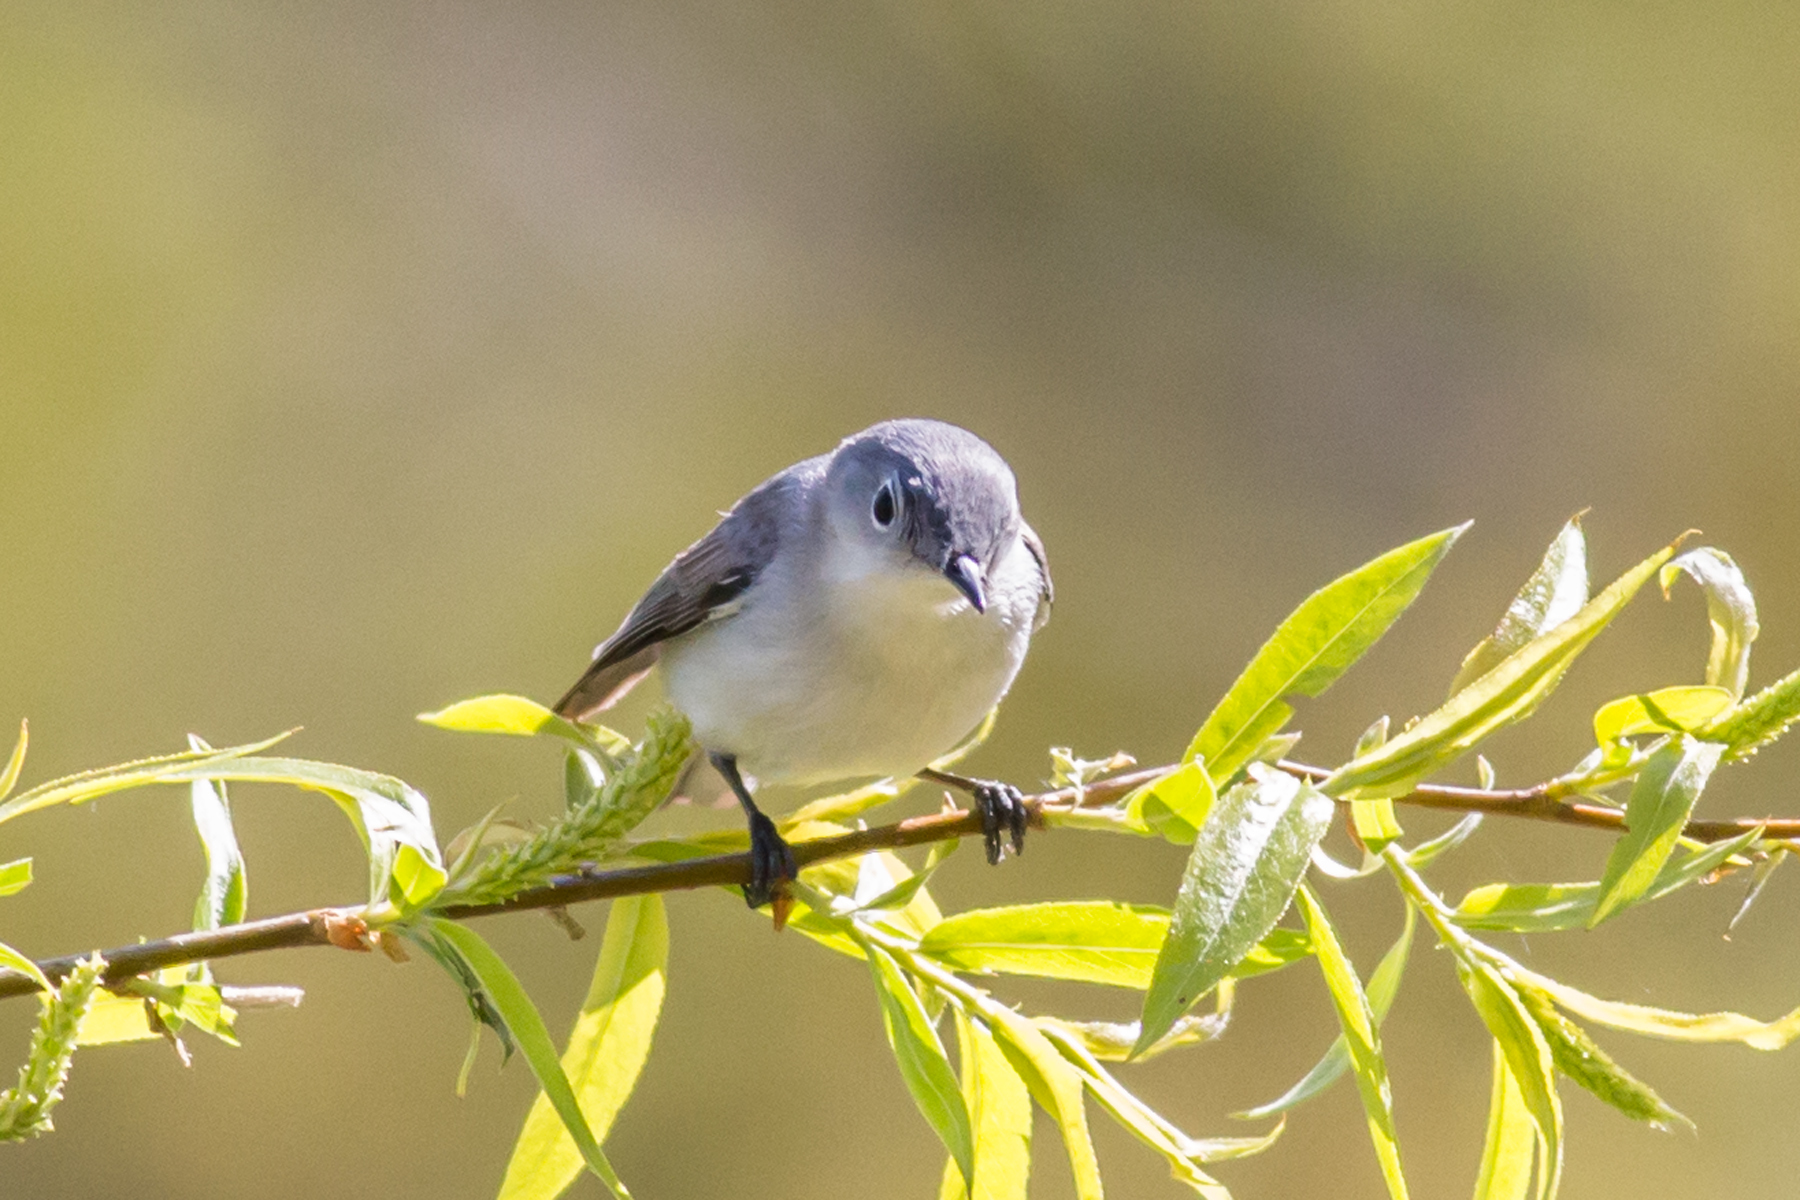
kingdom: Animalia
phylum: Chordata
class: Aves
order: Passeriformes
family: Polioptilidae
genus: Polioptila
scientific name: Polioptila caerulea
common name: Blue-gray gnatcatcher
